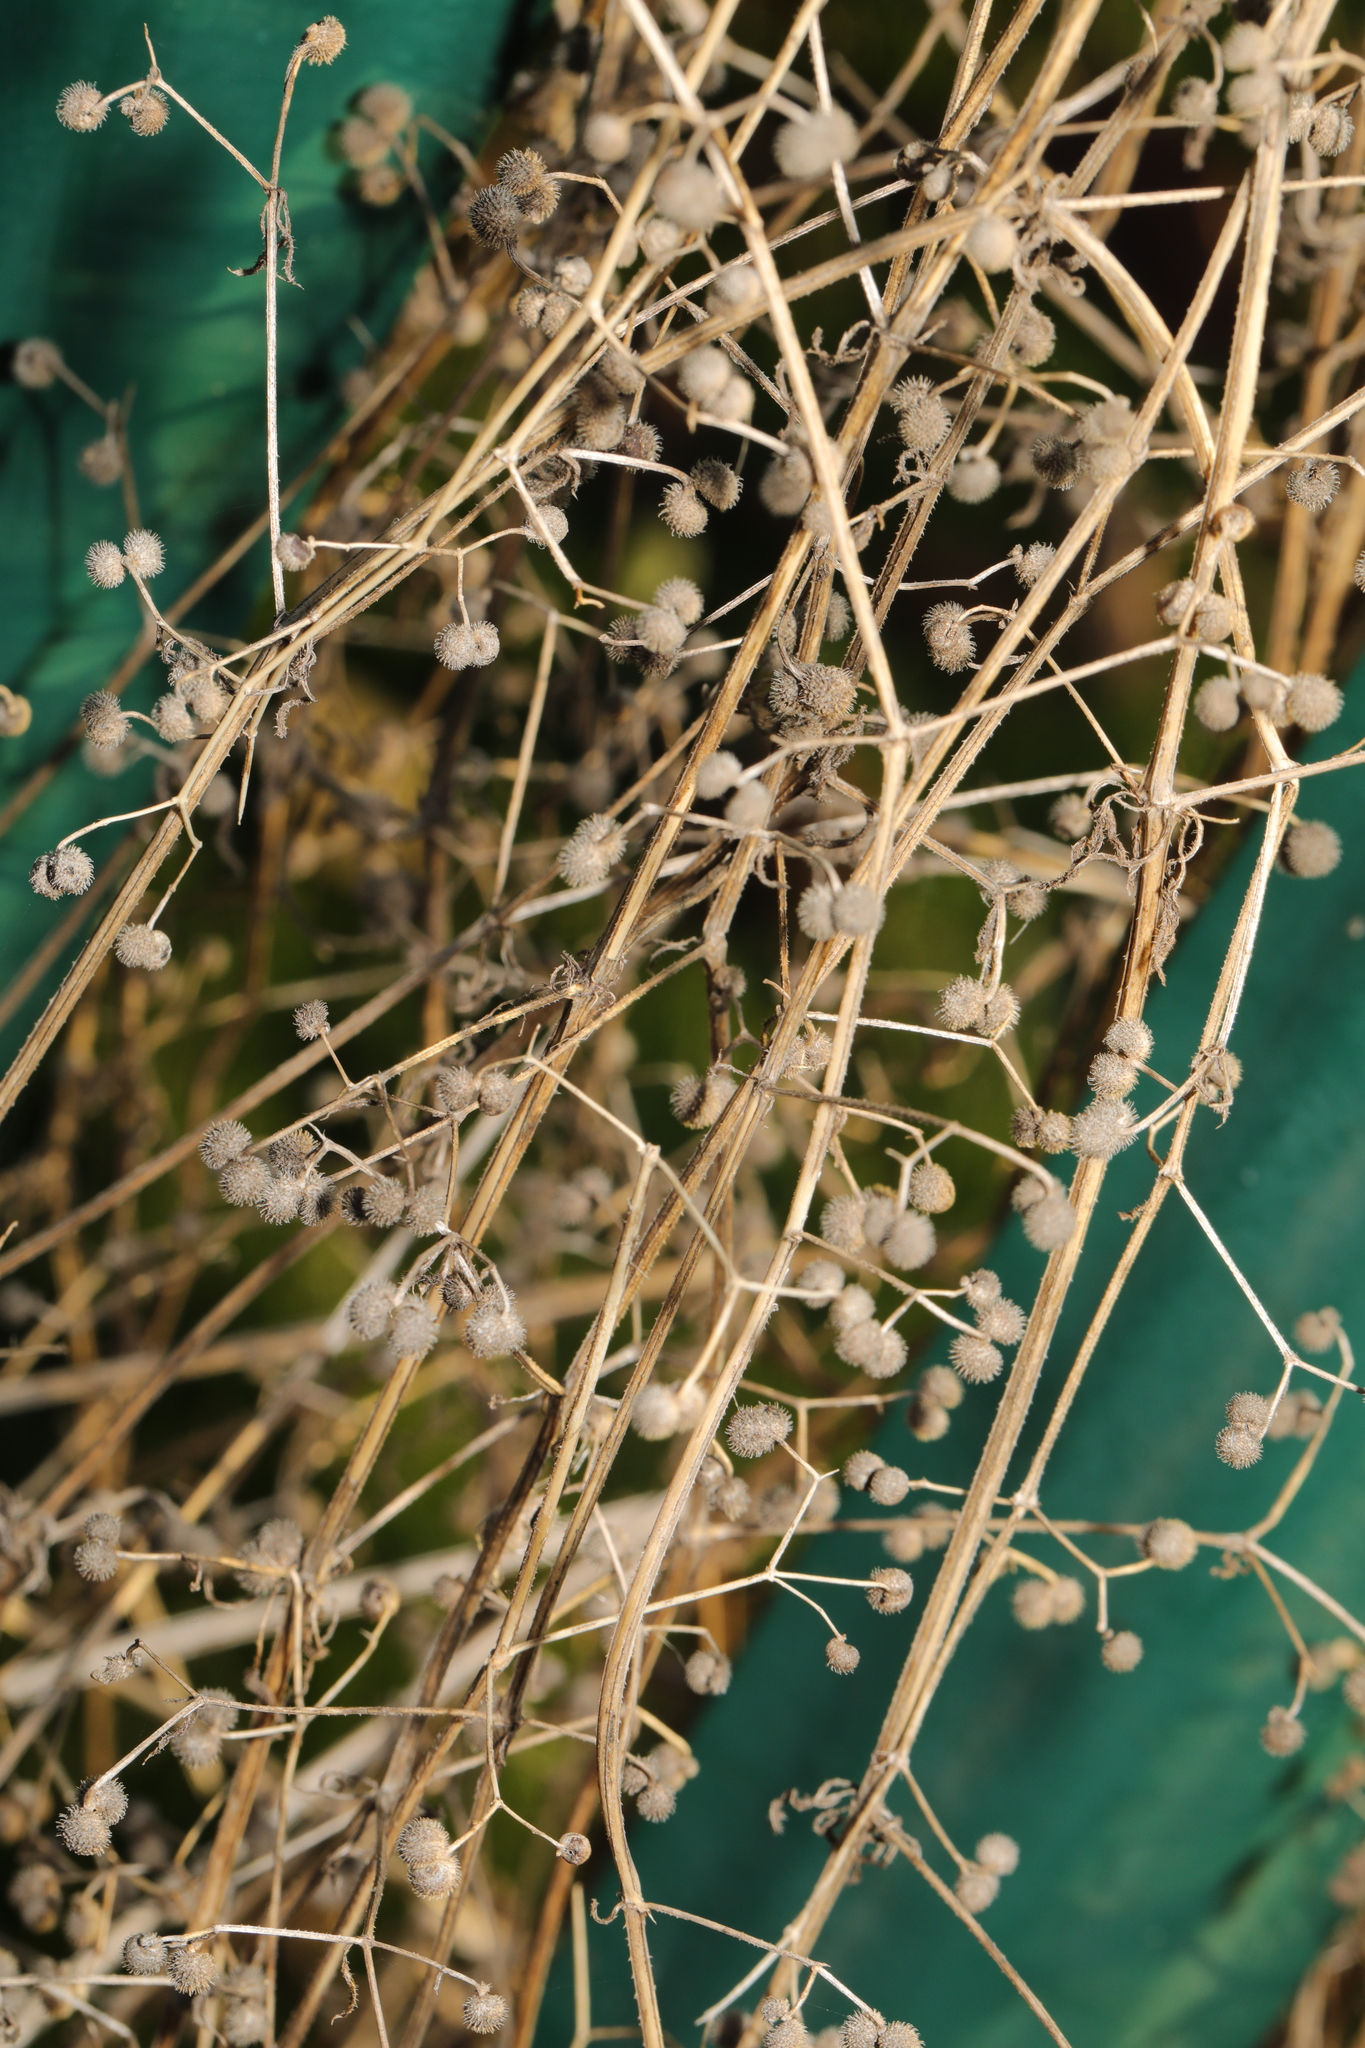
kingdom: Plantae
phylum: Tracheophyta
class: Magnoliopsida
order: Gentianales
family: Rubiaceae
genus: Galium
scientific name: Galium aparine
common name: Cleavers
